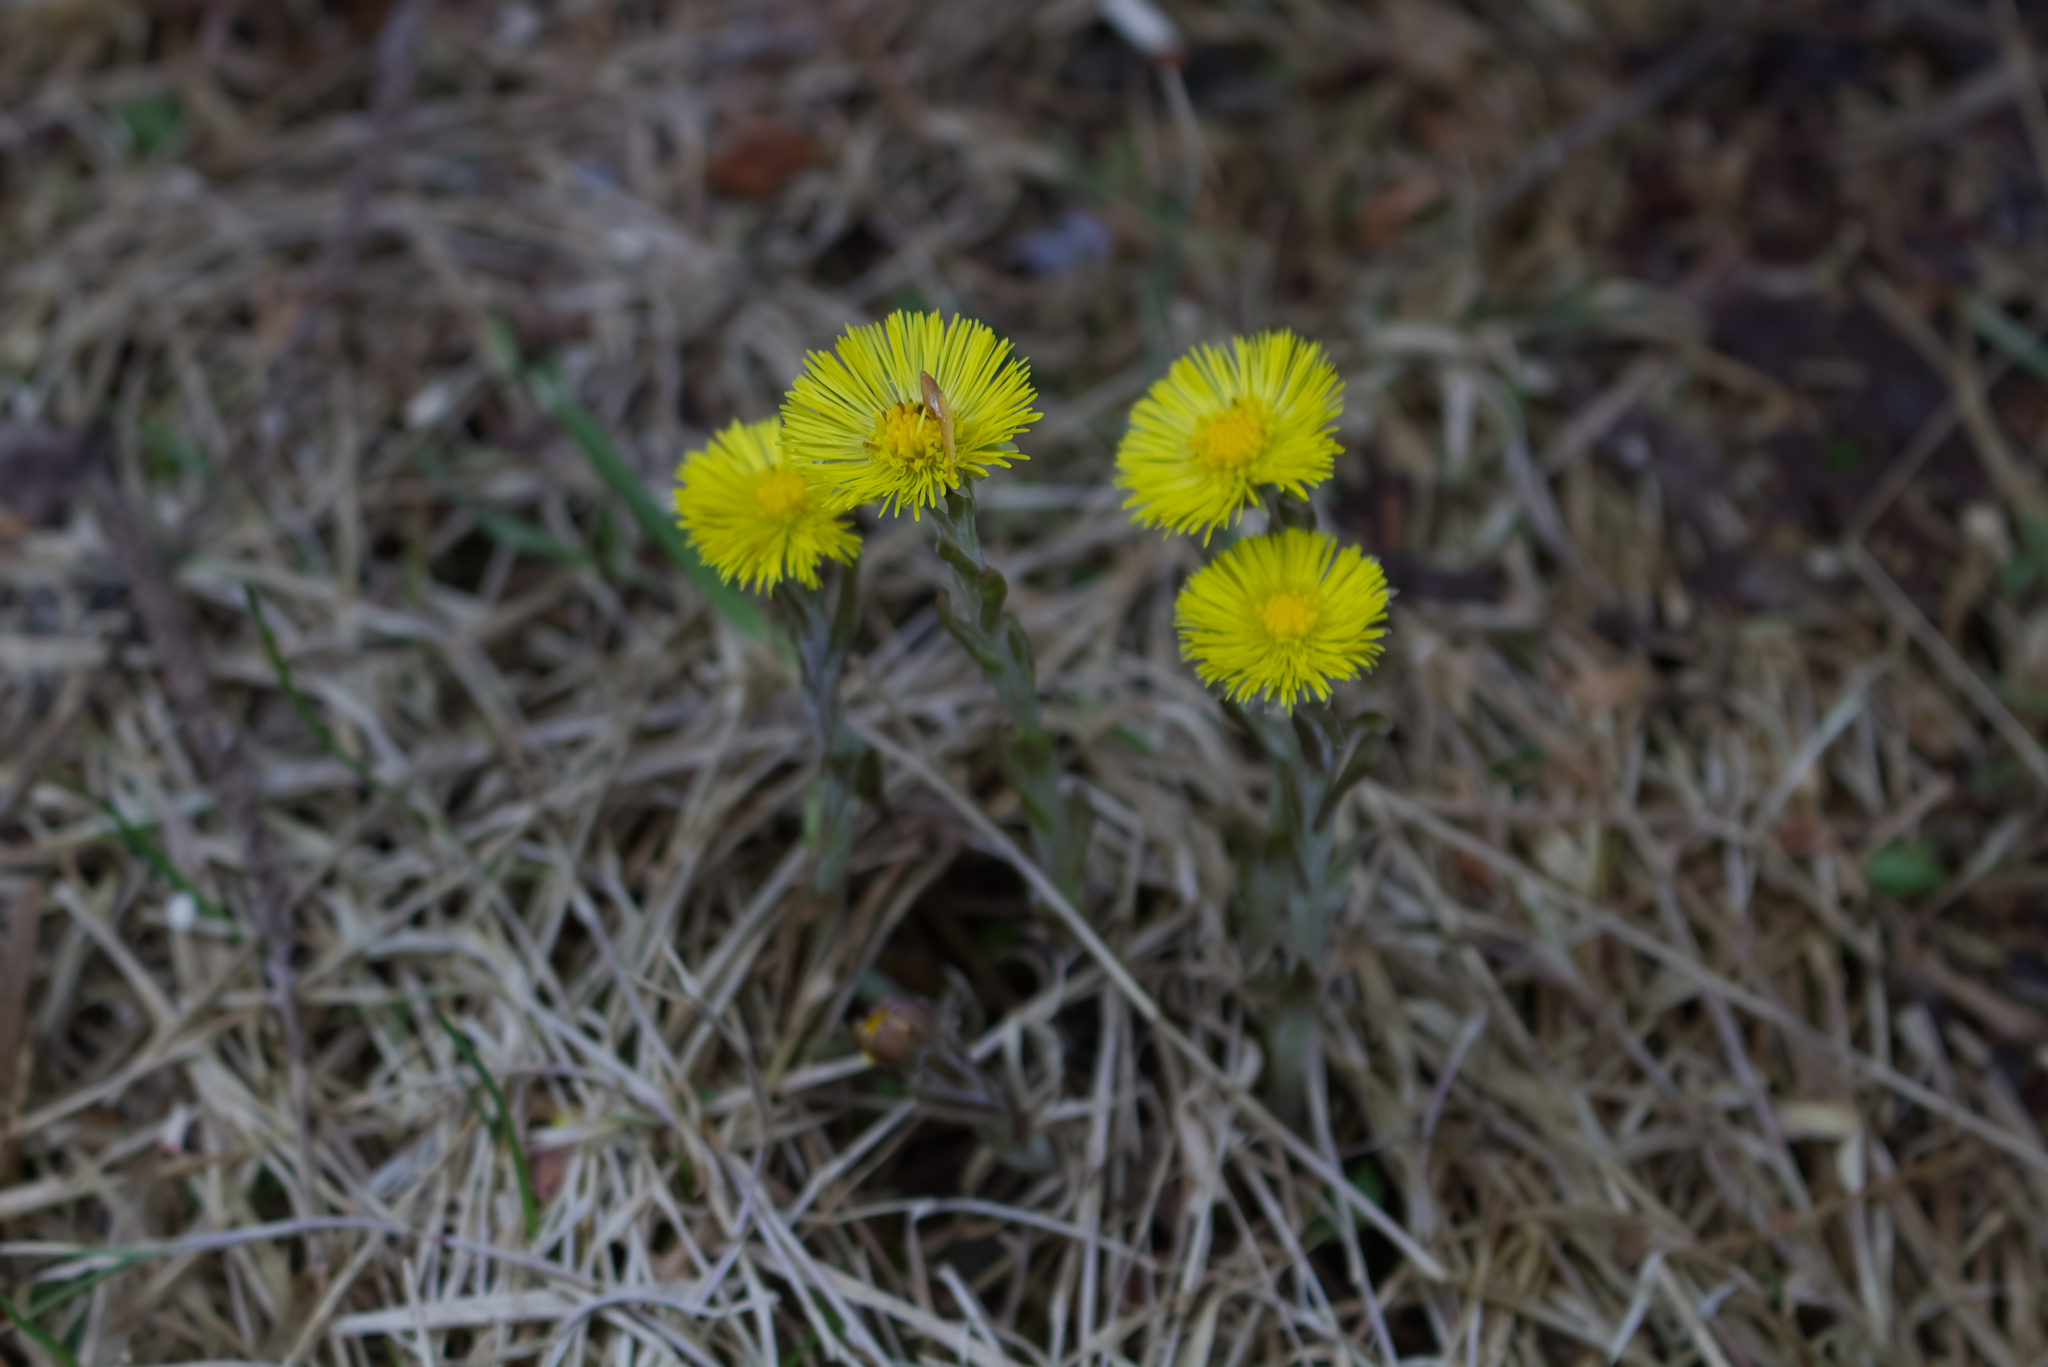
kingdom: Plantae
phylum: Tracheophyta
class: Magnoliopsida
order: Asterales
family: Asteraceae
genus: Tussilago
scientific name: Tussilago farfara
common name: Coltsfoot
